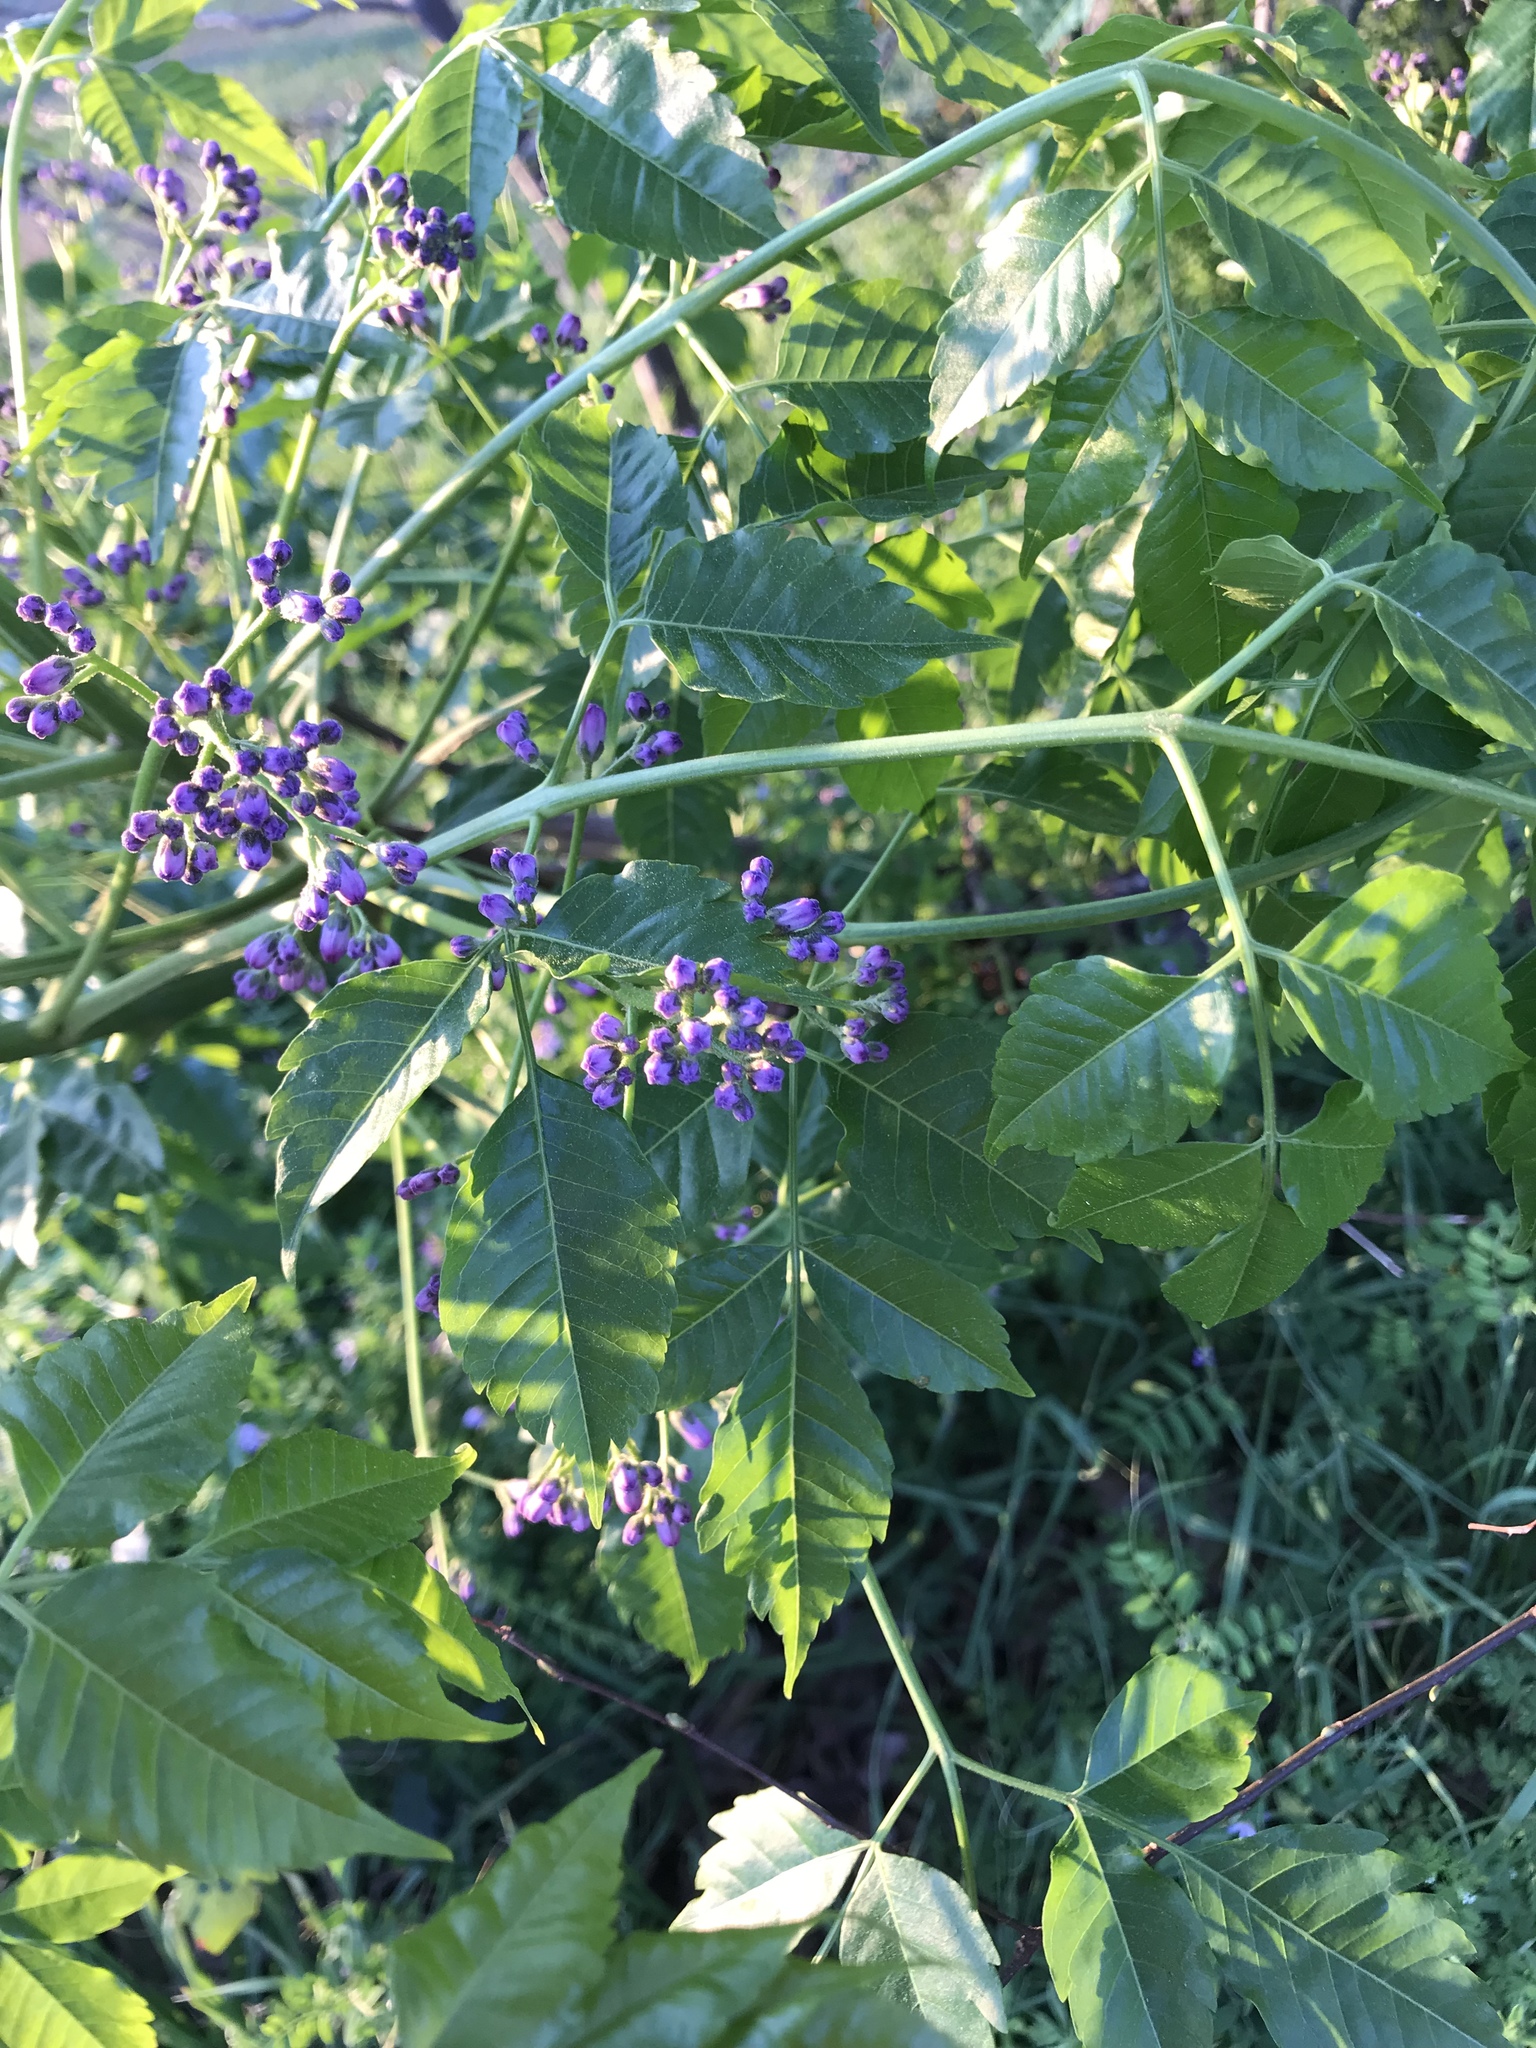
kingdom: Plantae
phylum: Tracheophyta
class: Magnoliopsida
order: Sapindales
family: Meliaceae
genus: Melia
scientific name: Melia azedarach
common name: Chinaberrytree
